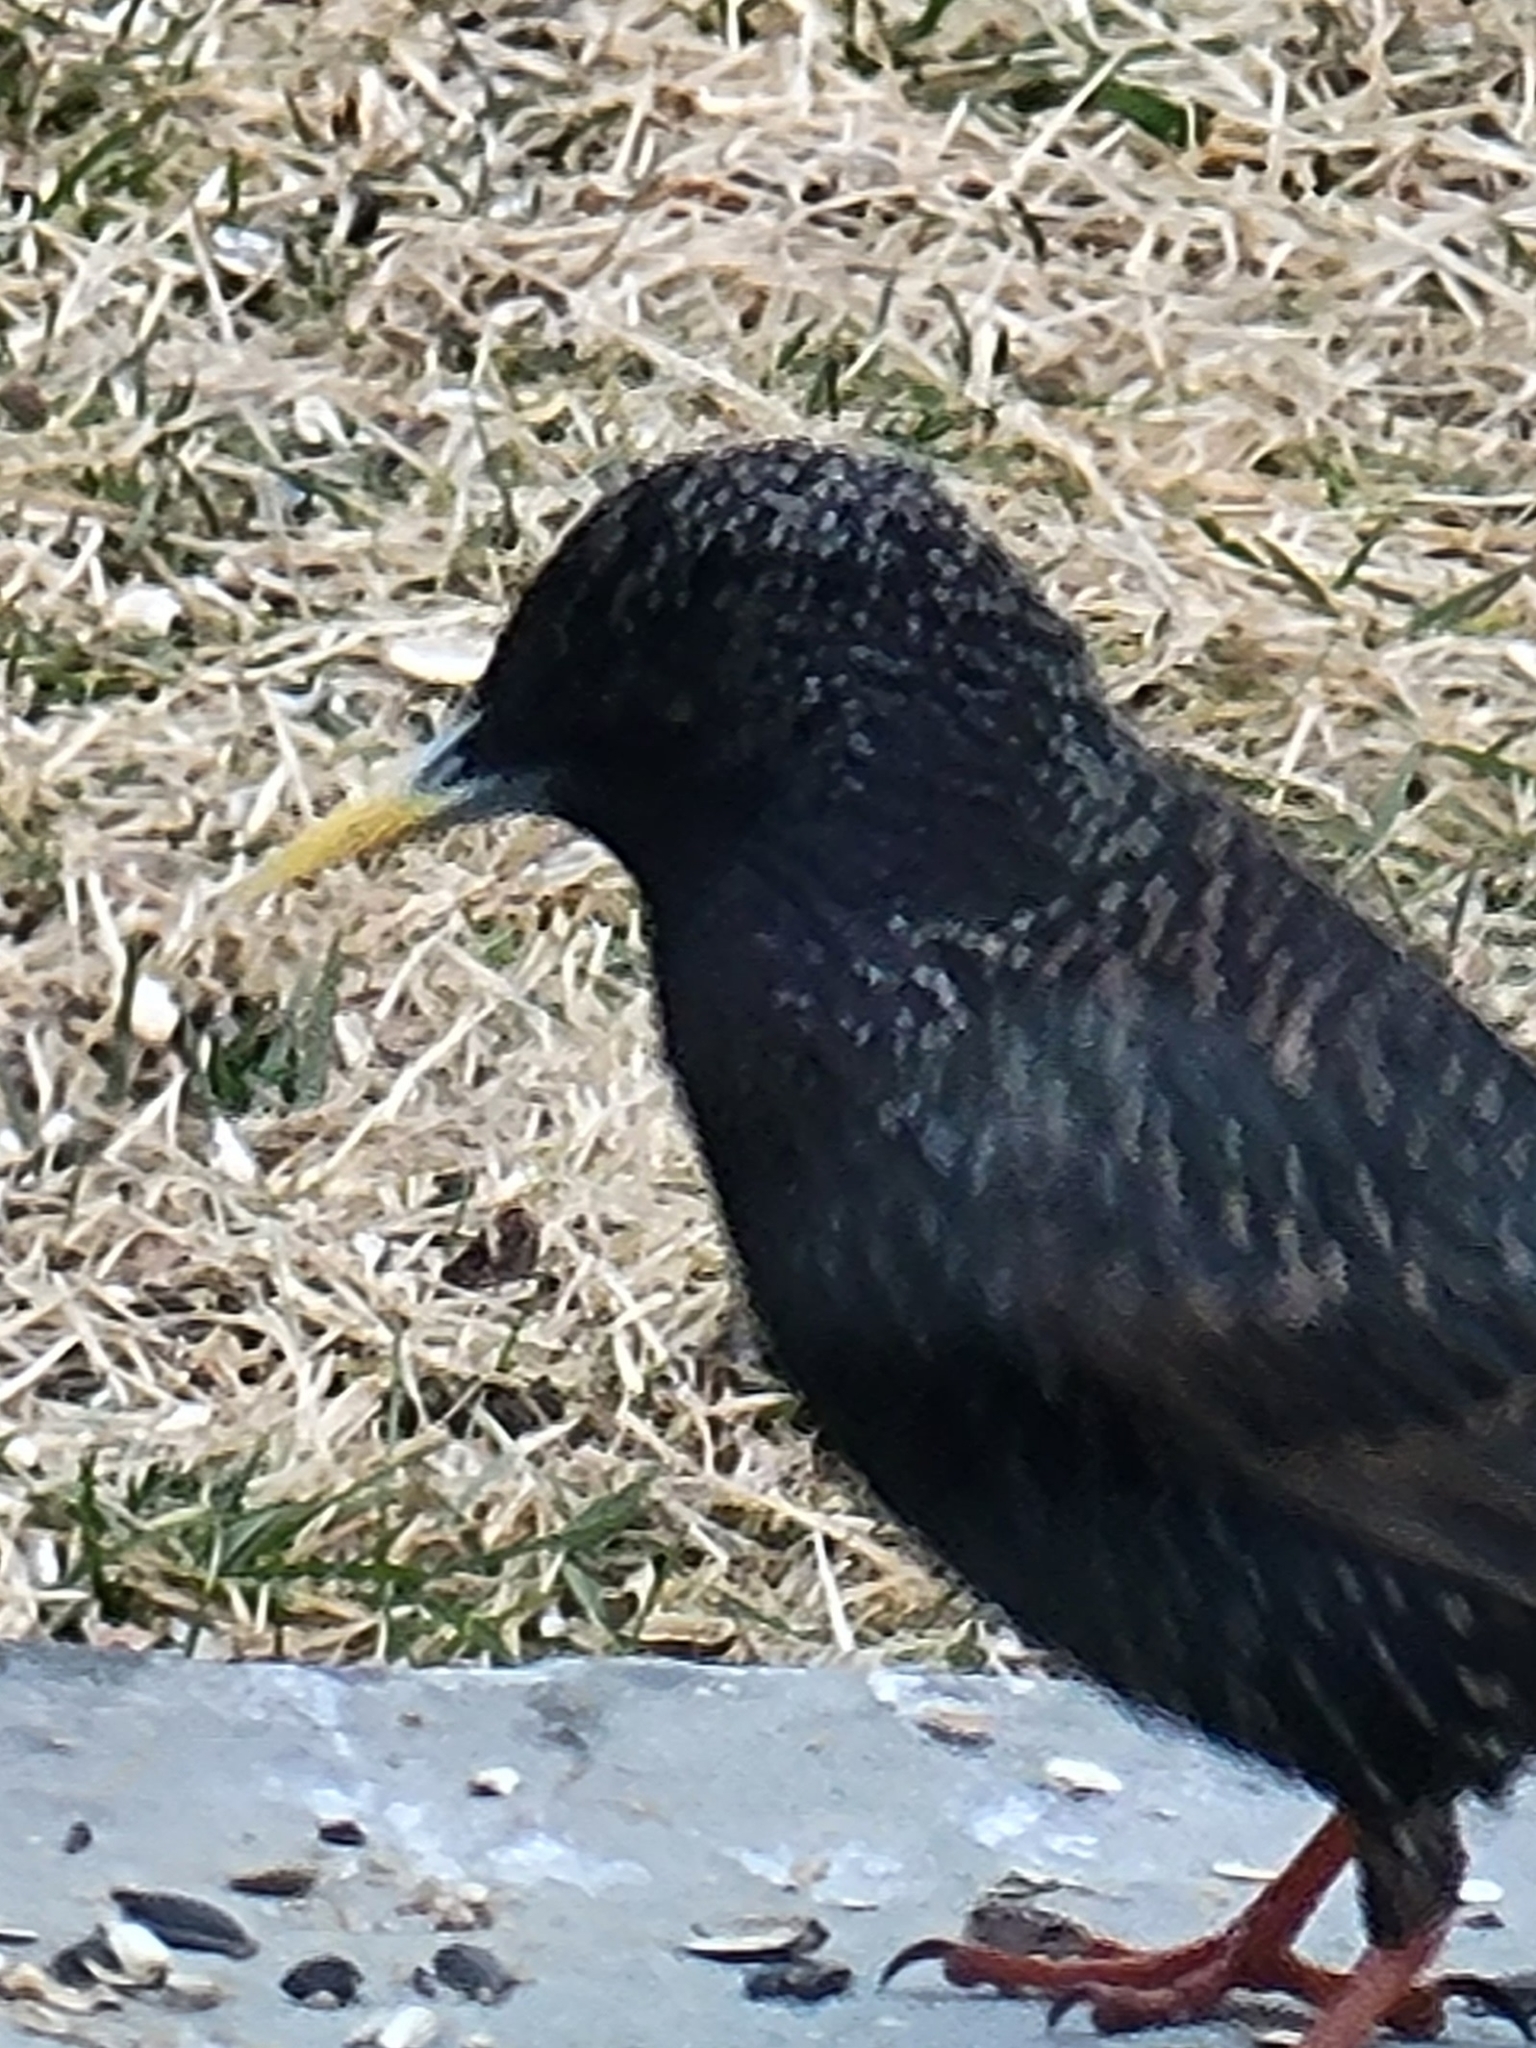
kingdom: Animalia
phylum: Chordata
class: Aves
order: Passeriformes
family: Sturnidae
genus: Sturnus
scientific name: Sturnus vulgaris
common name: Common starling
